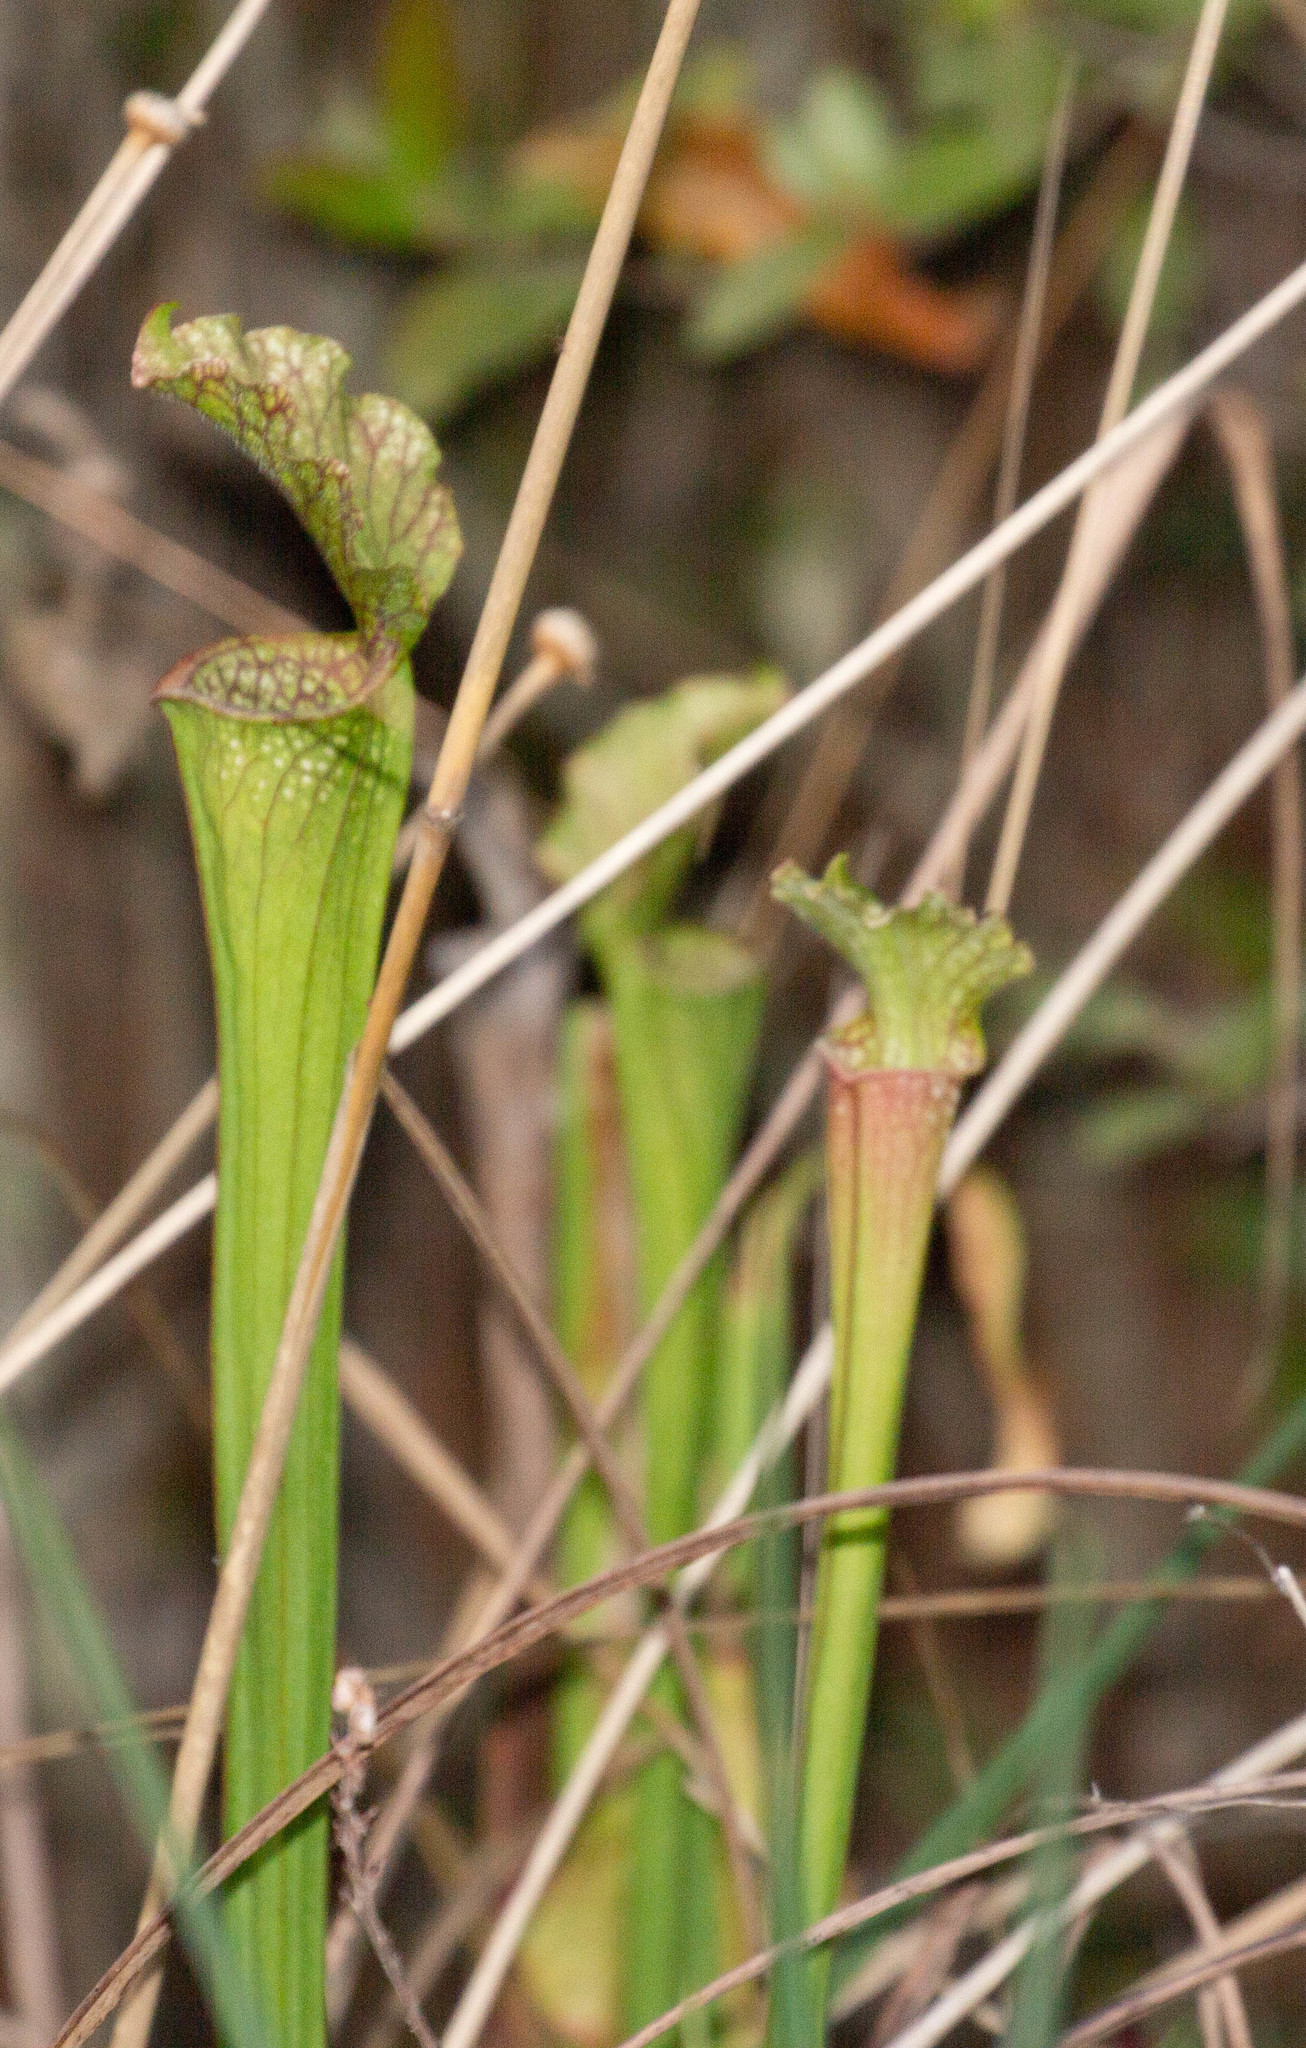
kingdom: Plantae
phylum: Tracheophyta
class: Magnoliopsida
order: Ericales
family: Sarraceniaceae
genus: Sarracenia
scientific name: Sarracenia leucophylla
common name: Purple trumpetleaf
